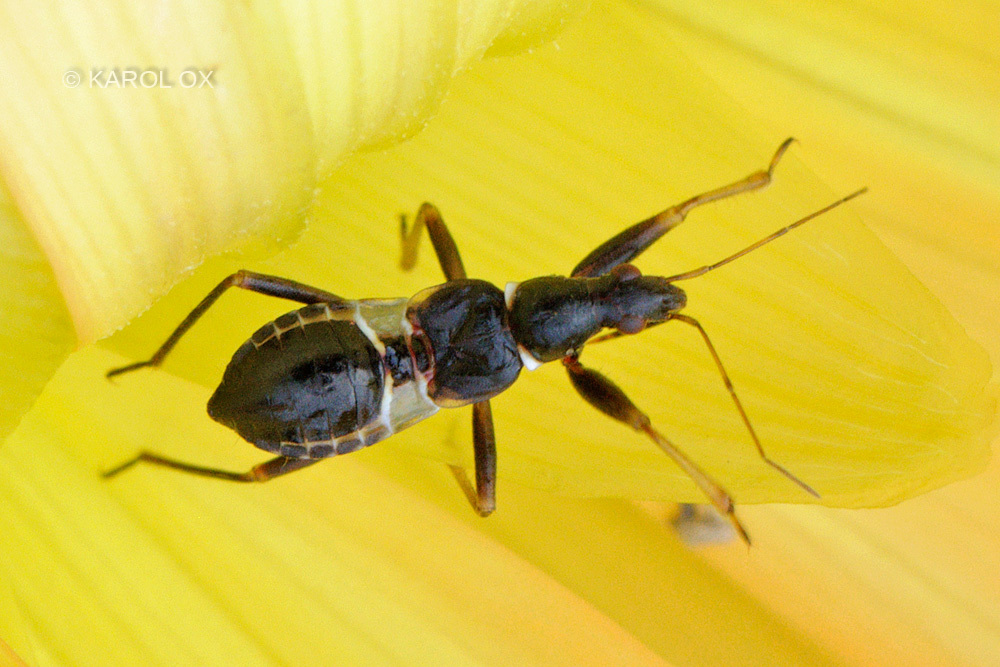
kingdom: Animalia
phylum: Arthropoda
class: Insecta
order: Hemiptera
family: Nabidae
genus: Himacerus
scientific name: Himacerus mirmicoides
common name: Ant damsel bug
